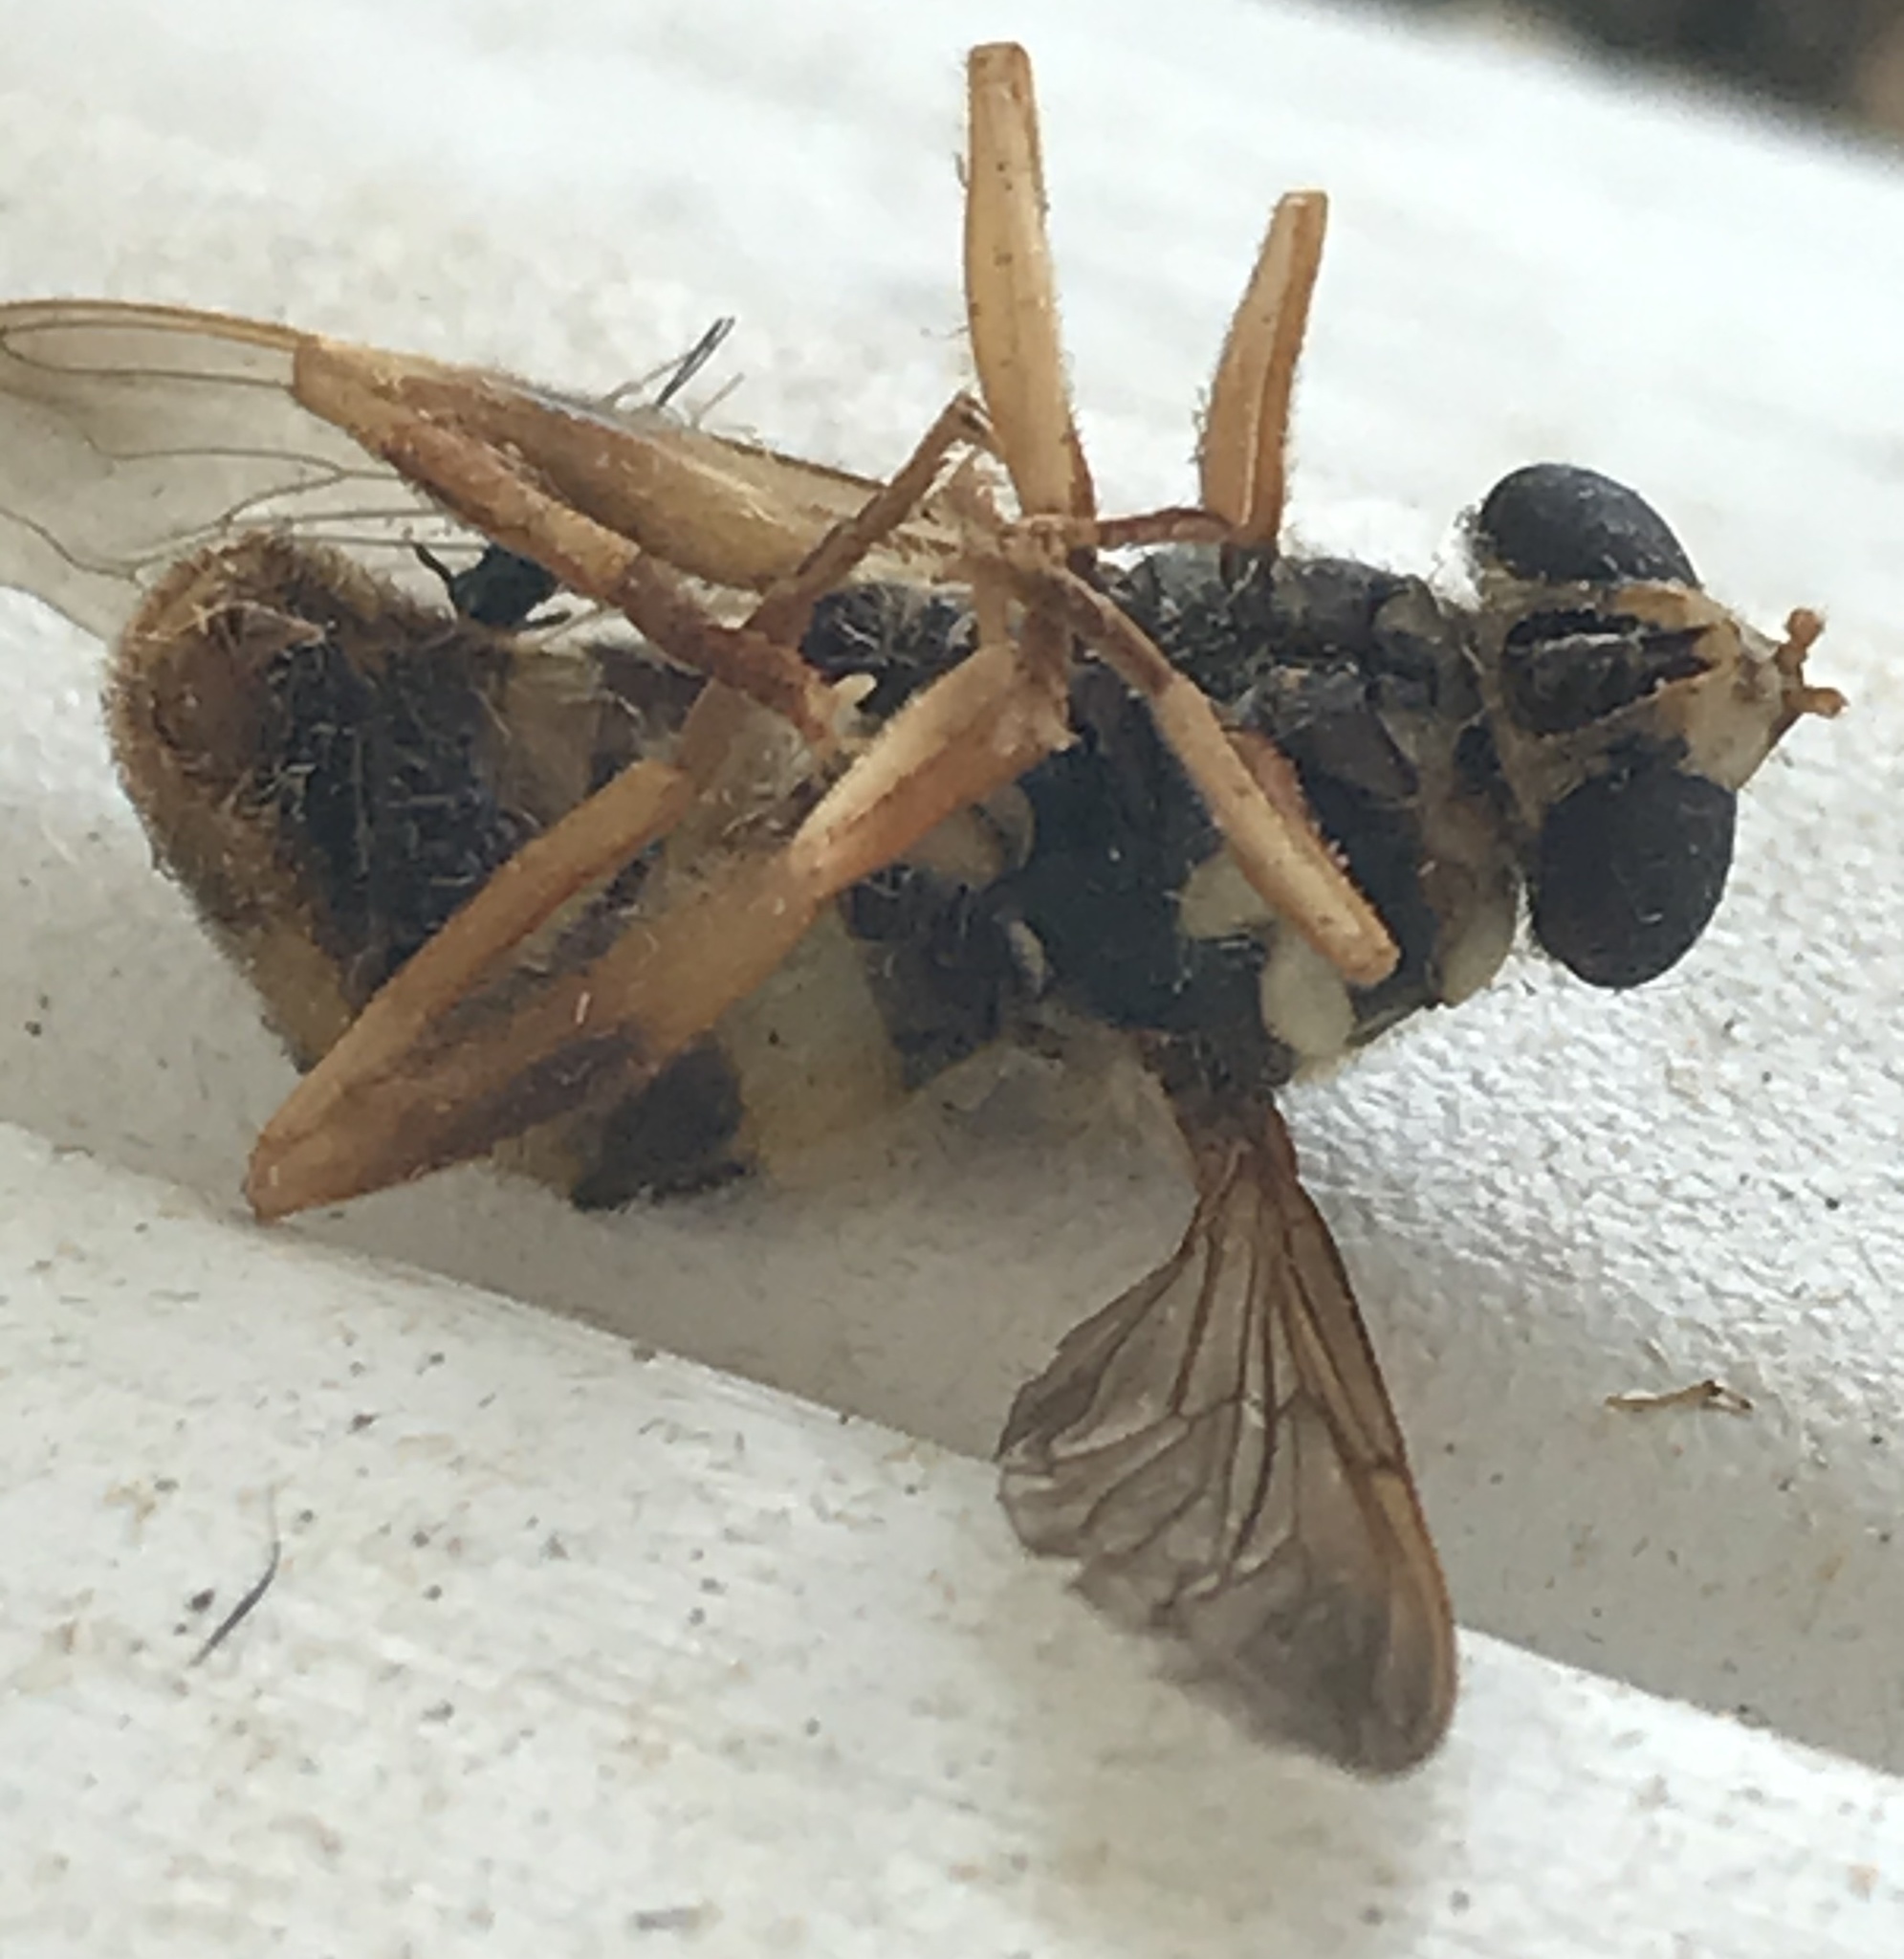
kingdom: Animalia
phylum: Arthropoda
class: Insecta
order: Diptera
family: Syrphidae
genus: Milesia
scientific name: Milesia virginiensis
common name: Virginia giant
